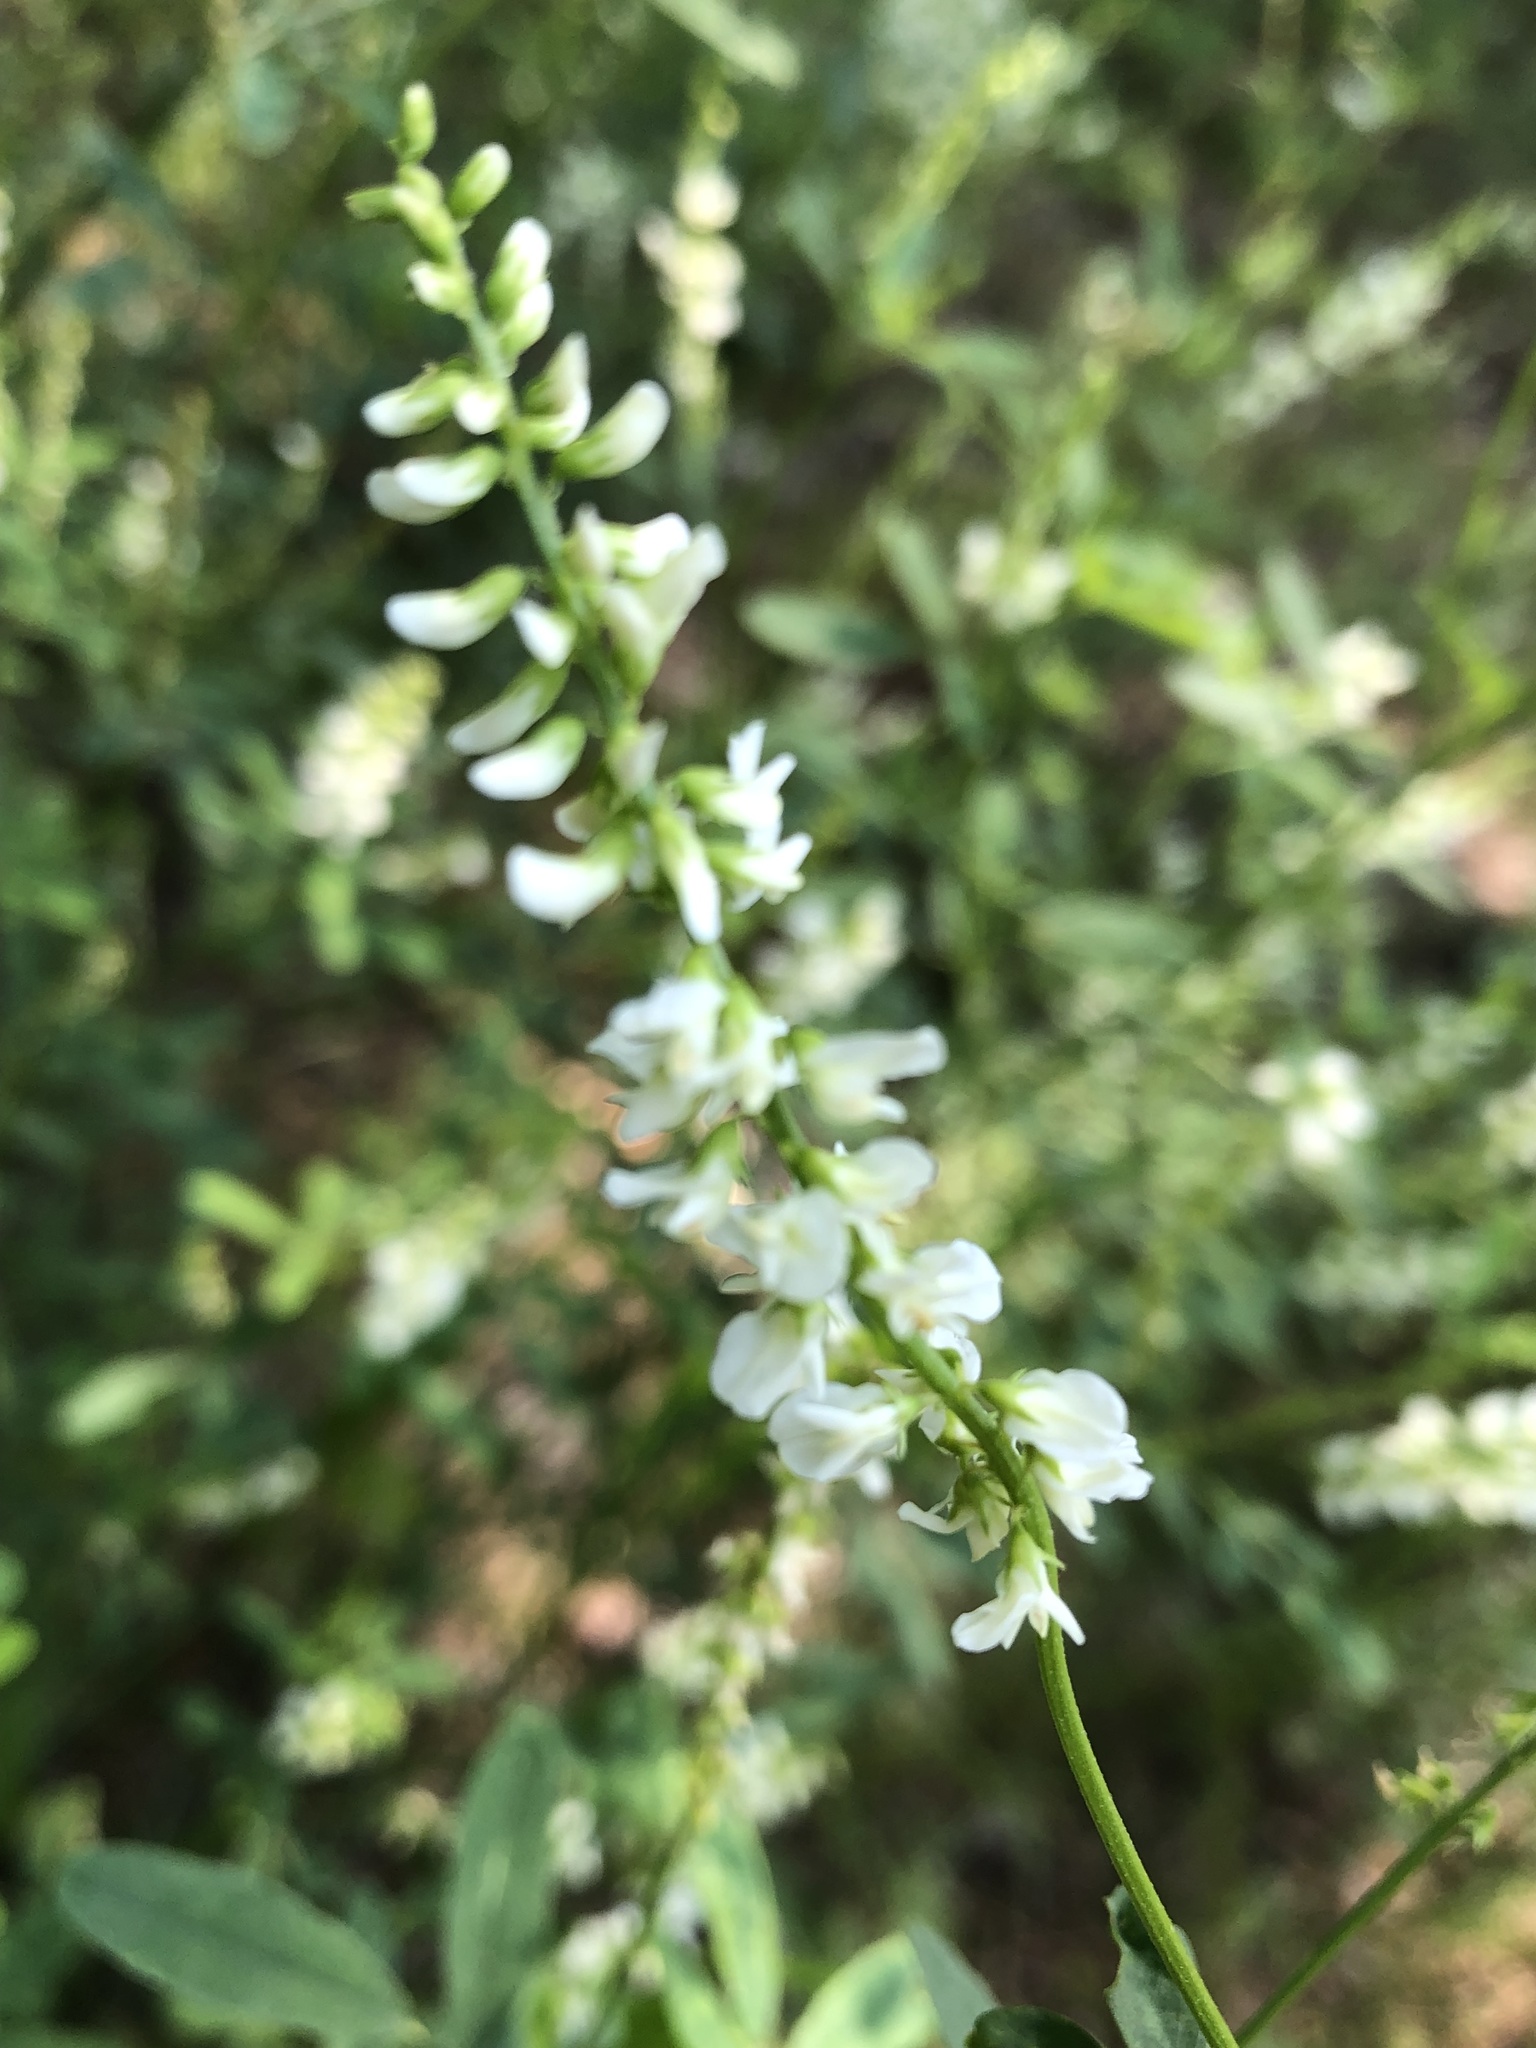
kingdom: Plantae
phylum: Tracheophyta
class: Magnoliopsida
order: Fabales
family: Fabaceae
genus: Melilotus
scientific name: Melilotus albus
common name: White melilot
